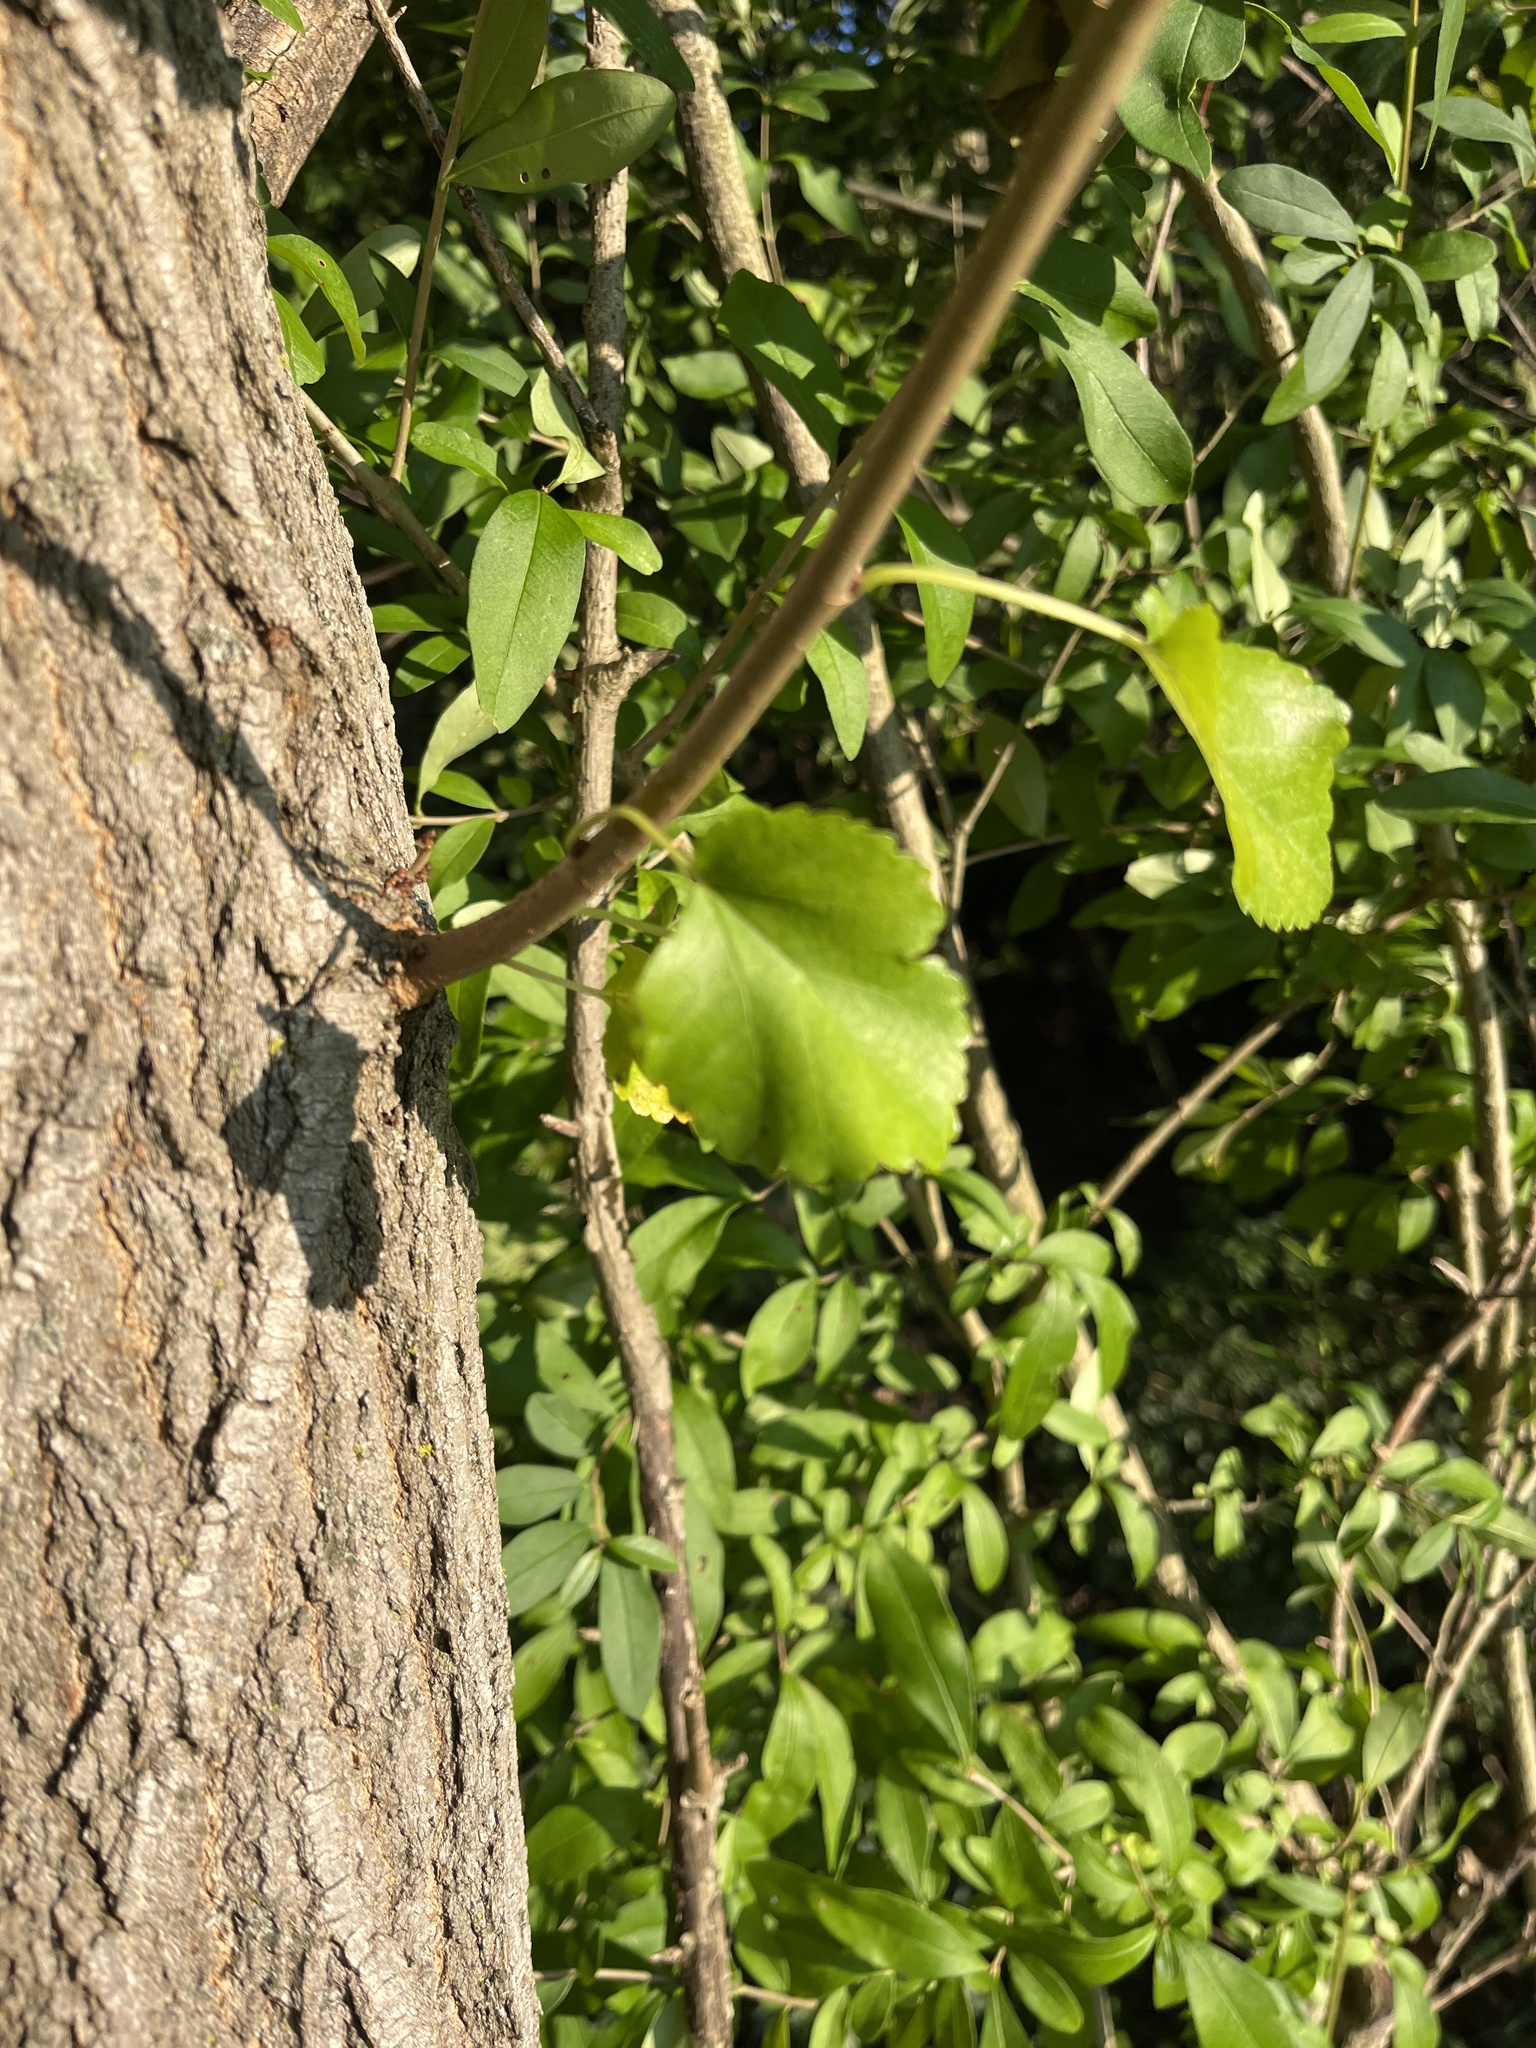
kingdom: Plantae
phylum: Tracheophyta
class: Magnoliopsida
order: Rosales
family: Moraceae
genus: Morus
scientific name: Morus alba
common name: White mulberry
